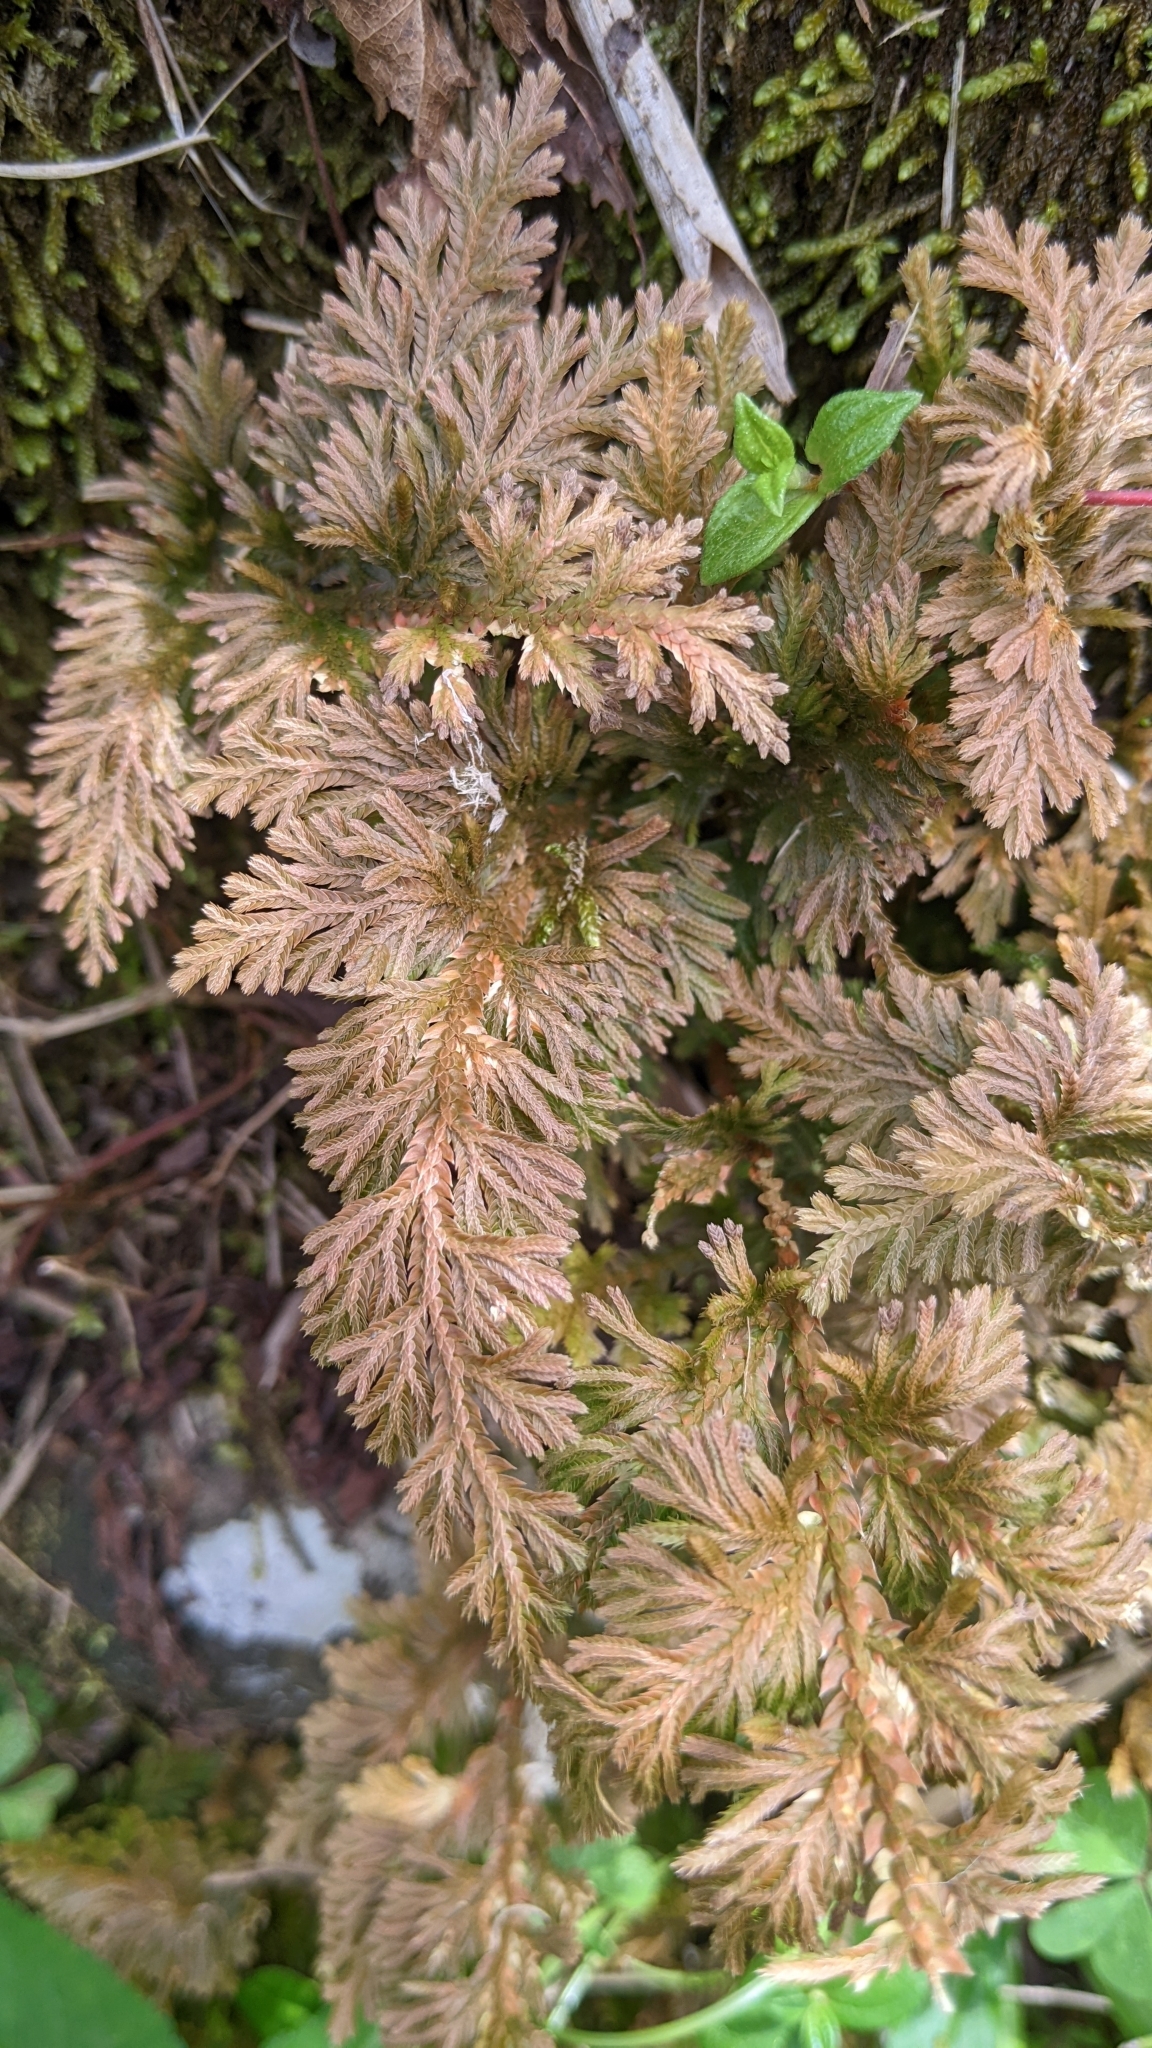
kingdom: Plantae
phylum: Tracheophyta
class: Lycopodiopsida
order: Selaginellales
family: Selaginellaceae
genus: Selaginella
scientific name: Selaginella moellendorffii
